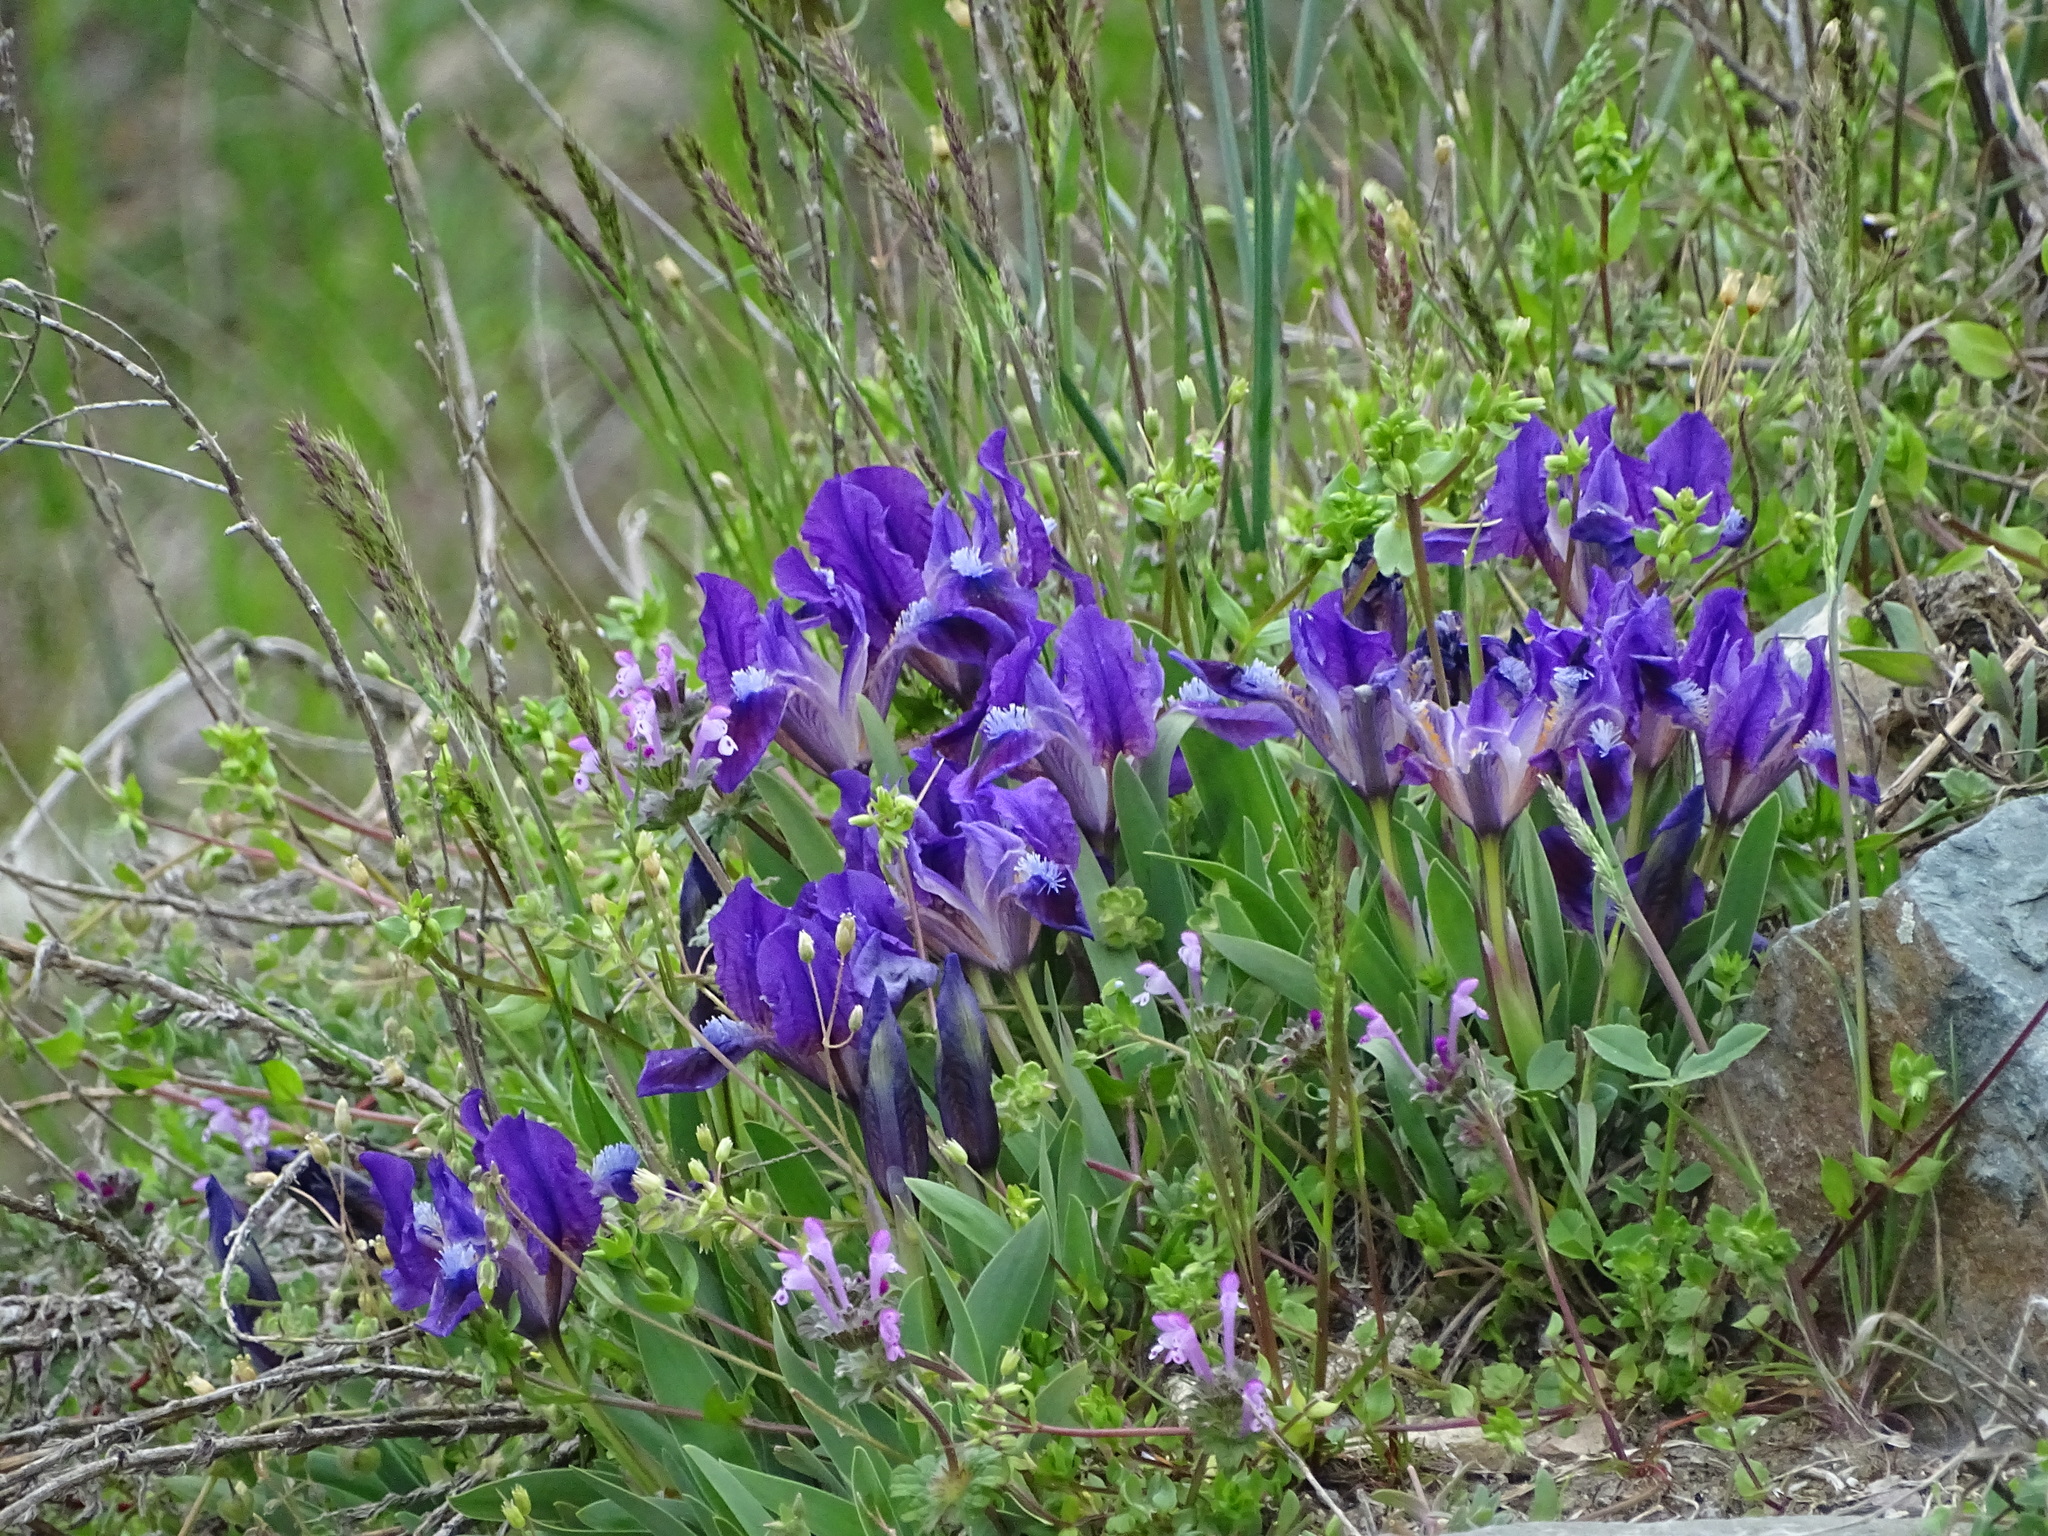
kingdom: Plantae
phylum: Tracheophyta
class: Liliopsida
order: Asparagales
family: Iridaceae
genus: Iris
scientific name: Iris pumila
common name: Dwarf iris
